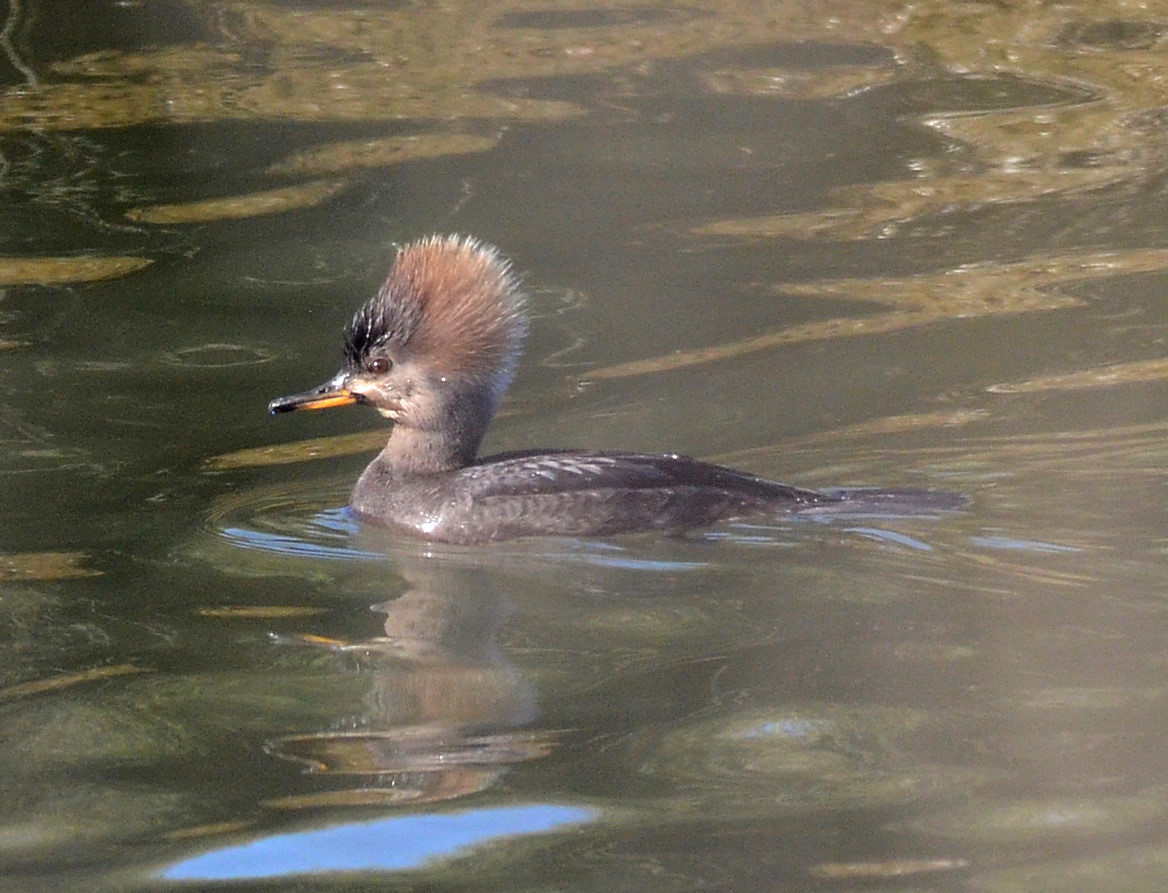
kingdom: Animalia
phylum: Chordata
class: Aves
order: Anseriformes
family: Anatidae
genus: Lophodytes
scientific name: Lophodytes cucullatus
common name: Hooded merganser
